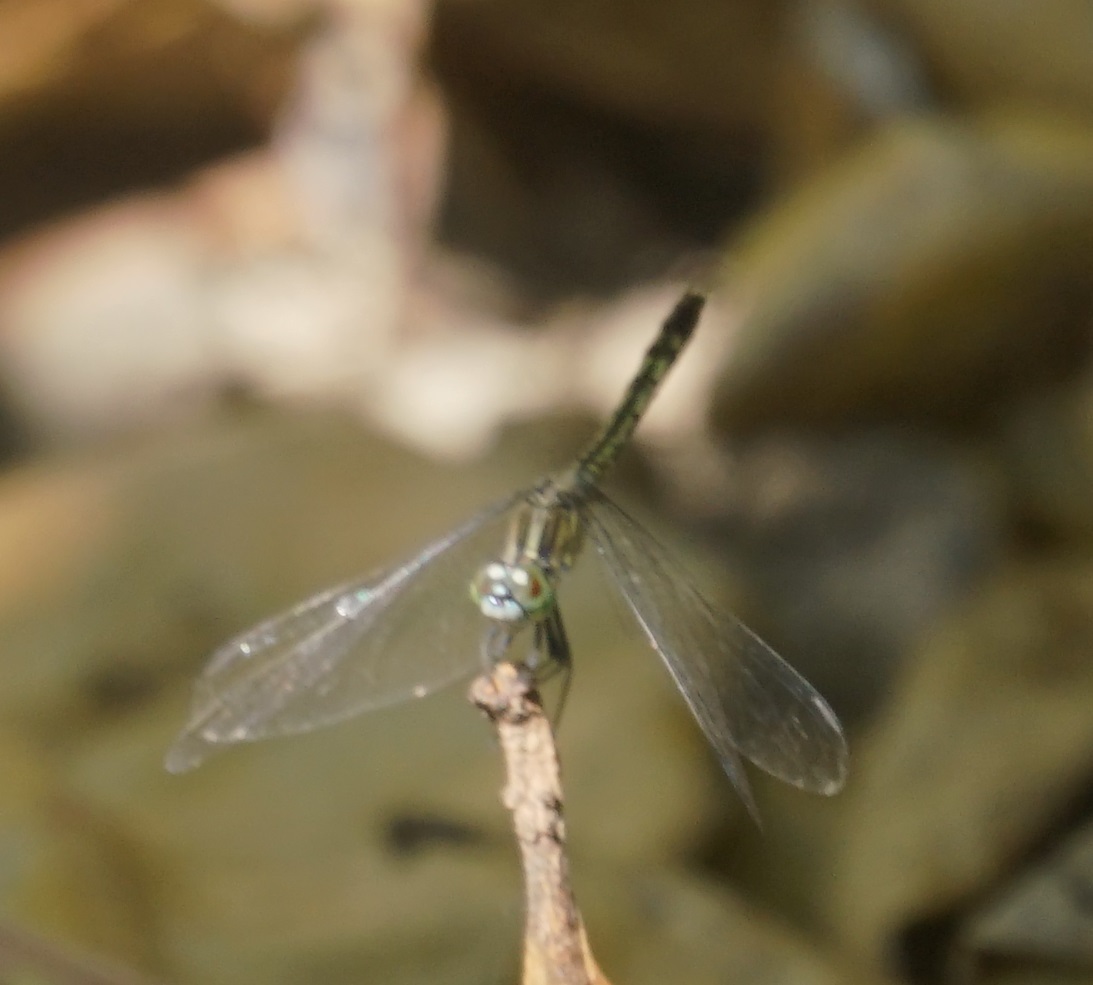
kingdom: Animalia
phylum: Arthropoda
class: Insecta
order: Odonata
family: Libellulidae
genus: Diplacodes
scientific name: Diplacodes trivialis
